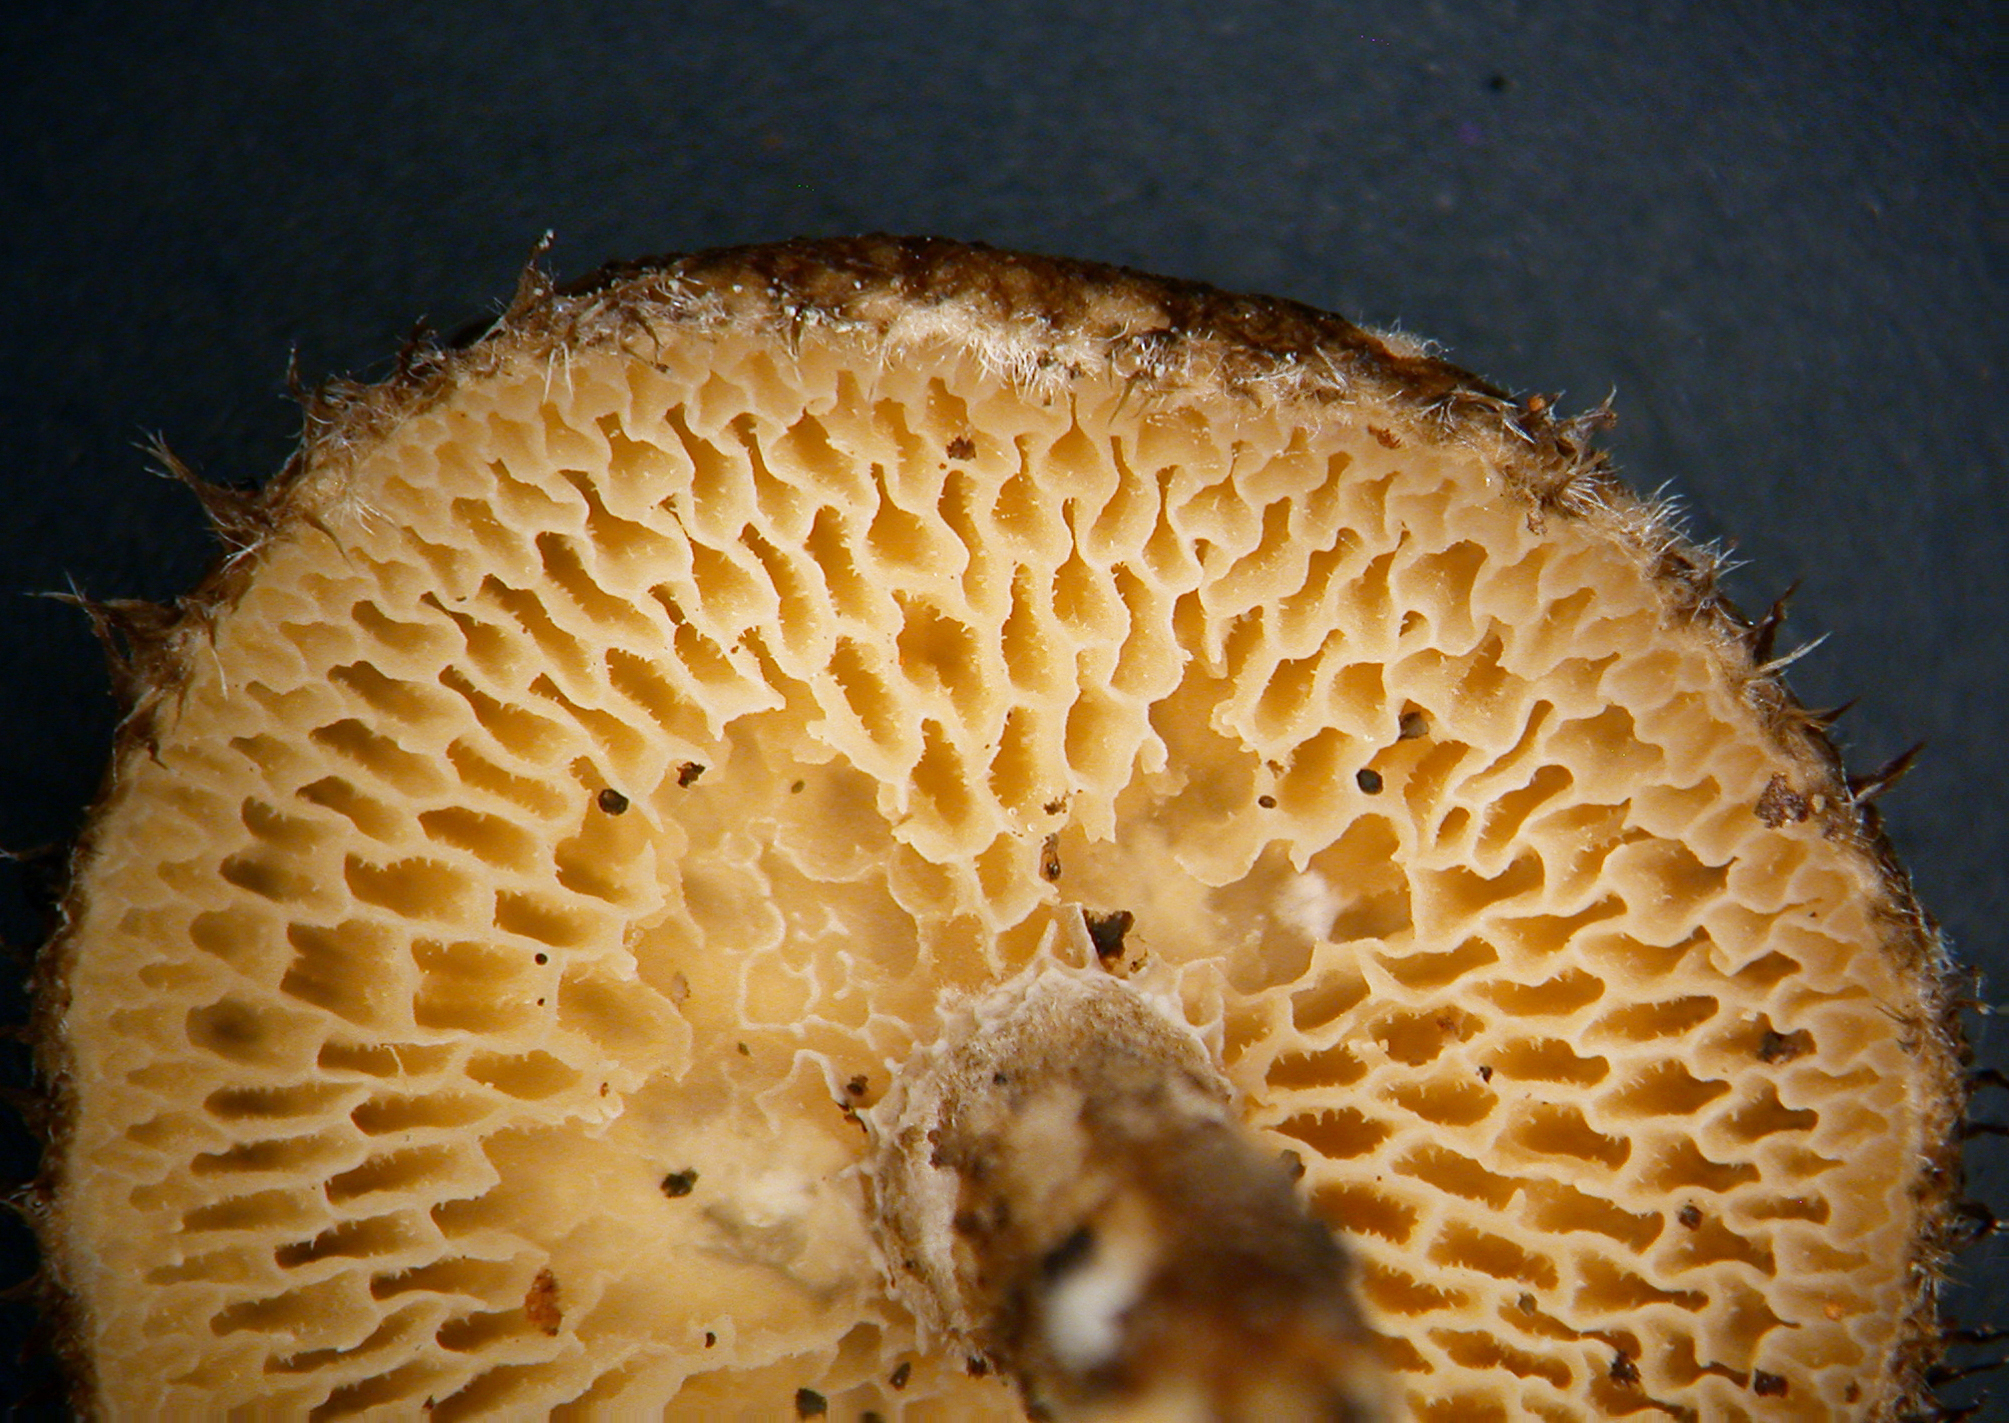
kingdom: Fungi
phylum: Basidiomycota
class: Agaricomycetes
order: Polyporales
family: Polyporaceae
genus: Lentinus
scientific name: Lentinus arcularius
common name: Spring polypore
